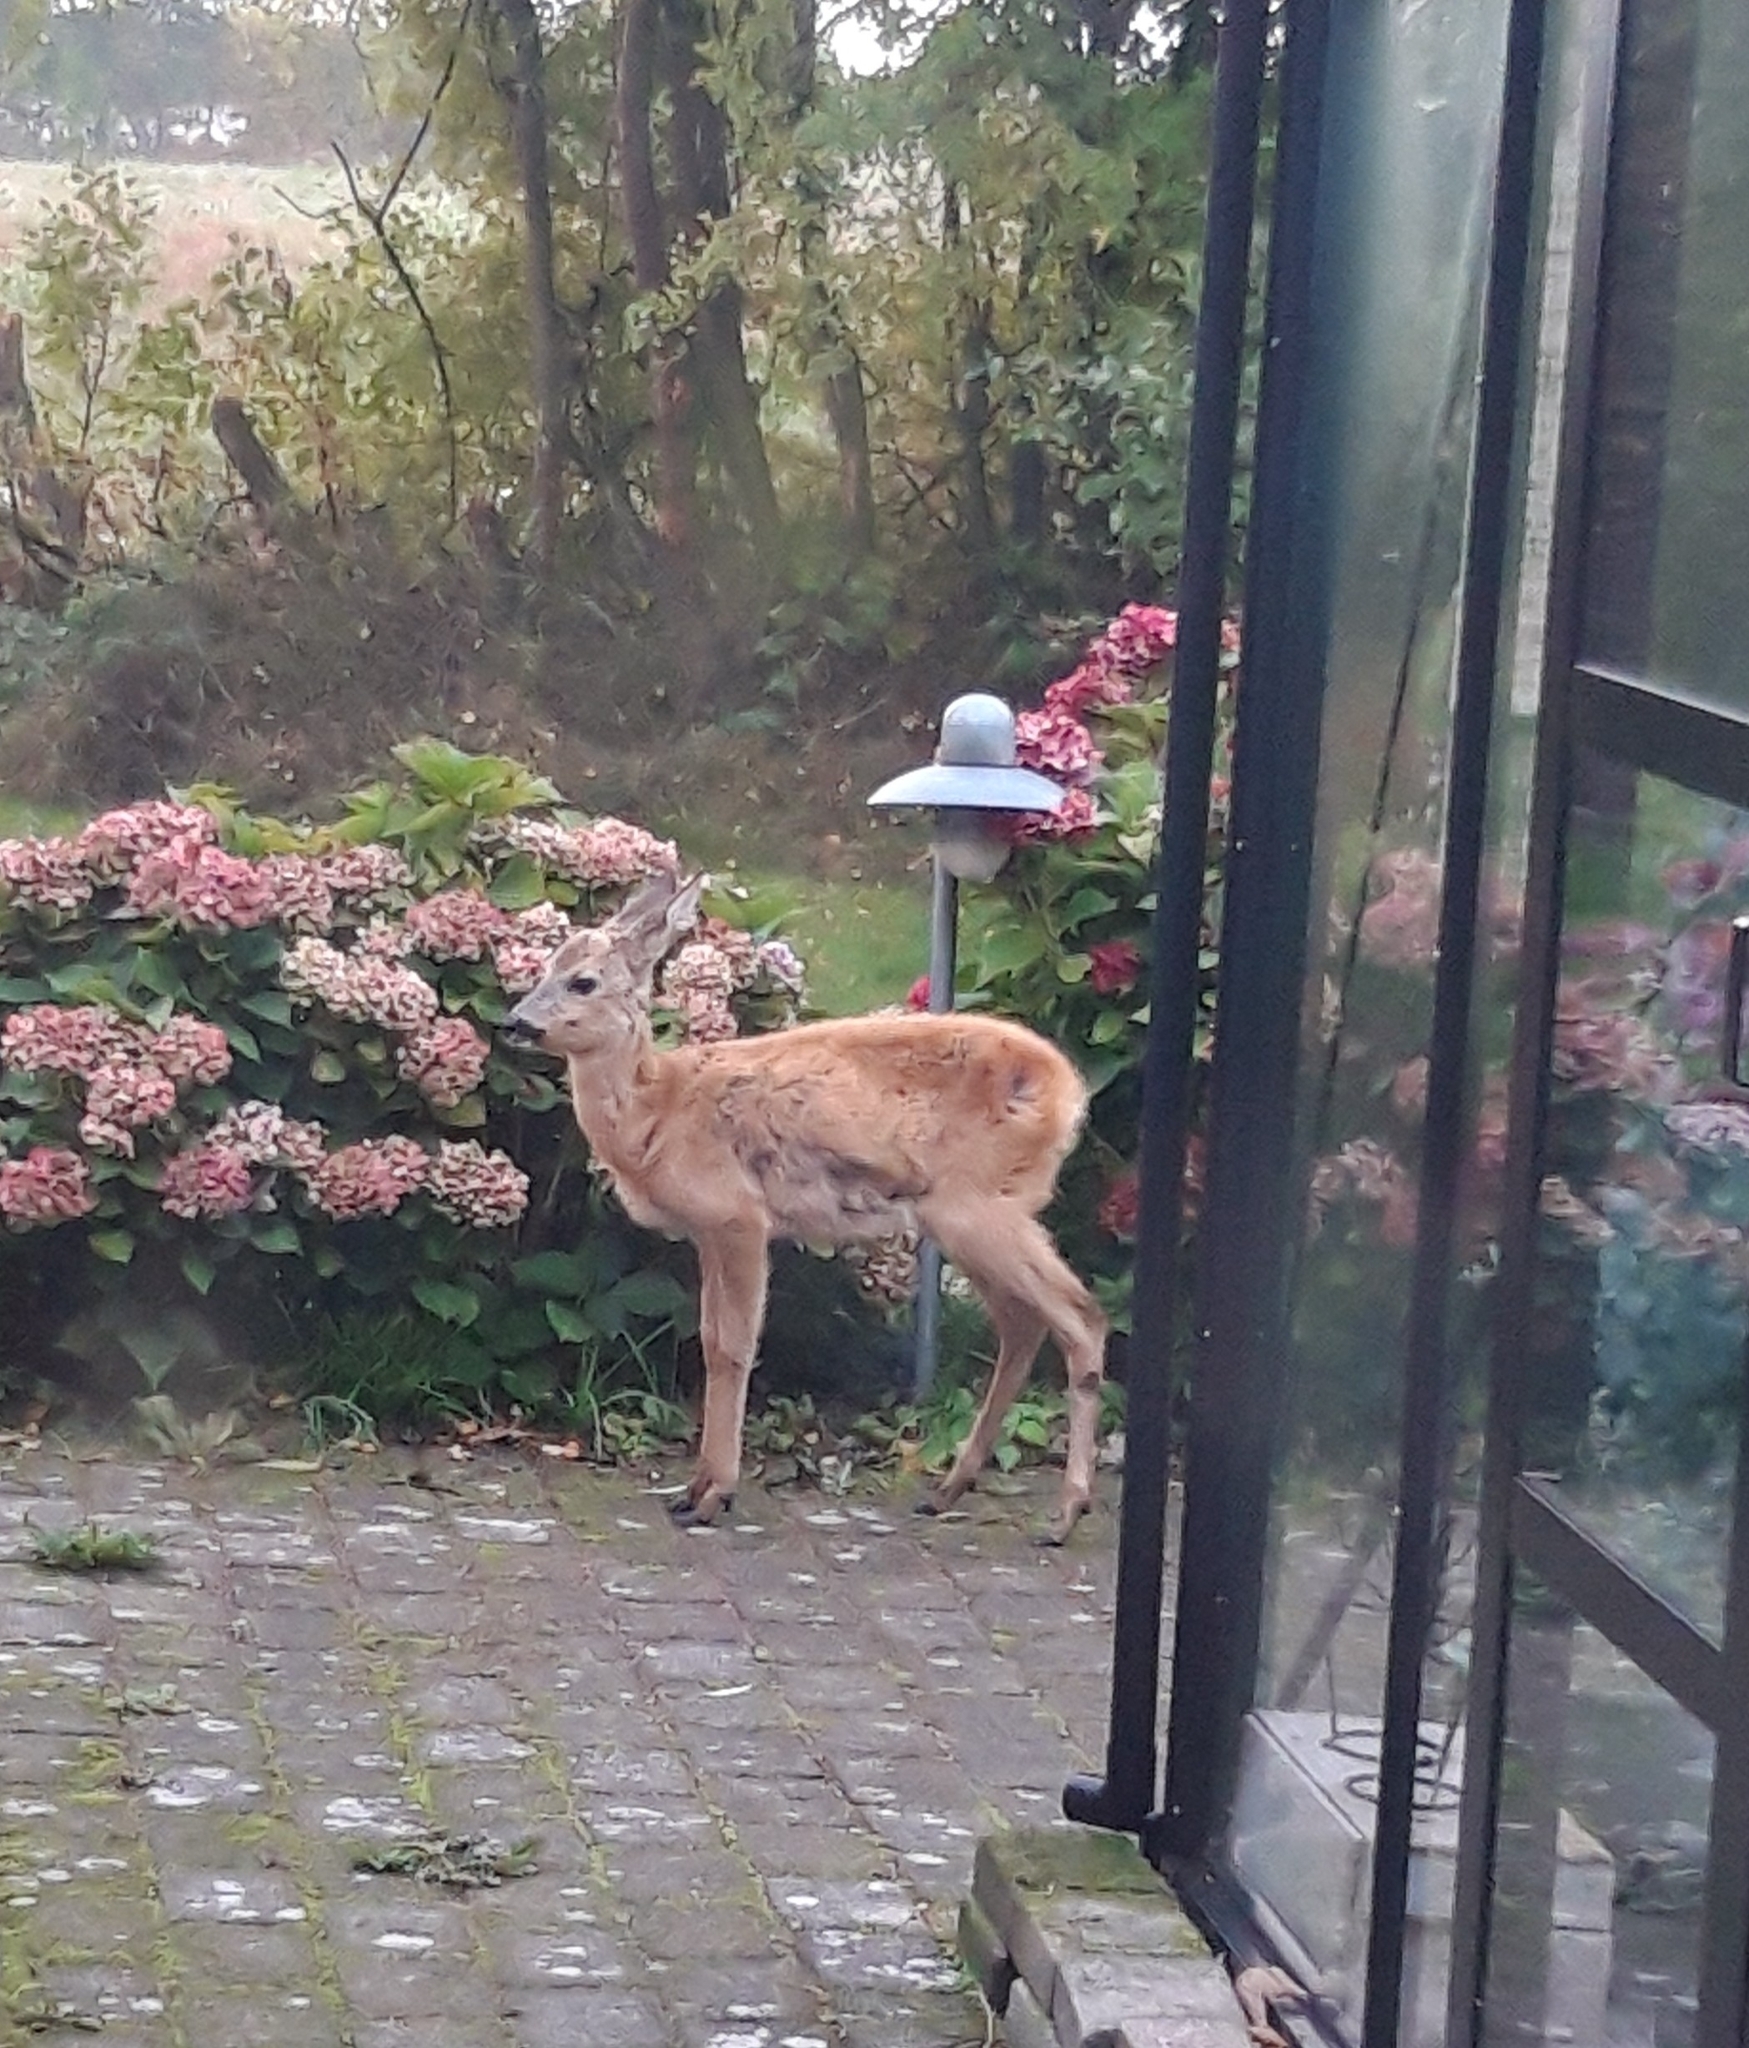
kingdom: Animalia
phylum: Chordata
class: Mammalia
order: Artiodactyla
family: Cervidae
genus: Capreolus
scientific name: Capreolus capreolus
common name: Western roe deer
